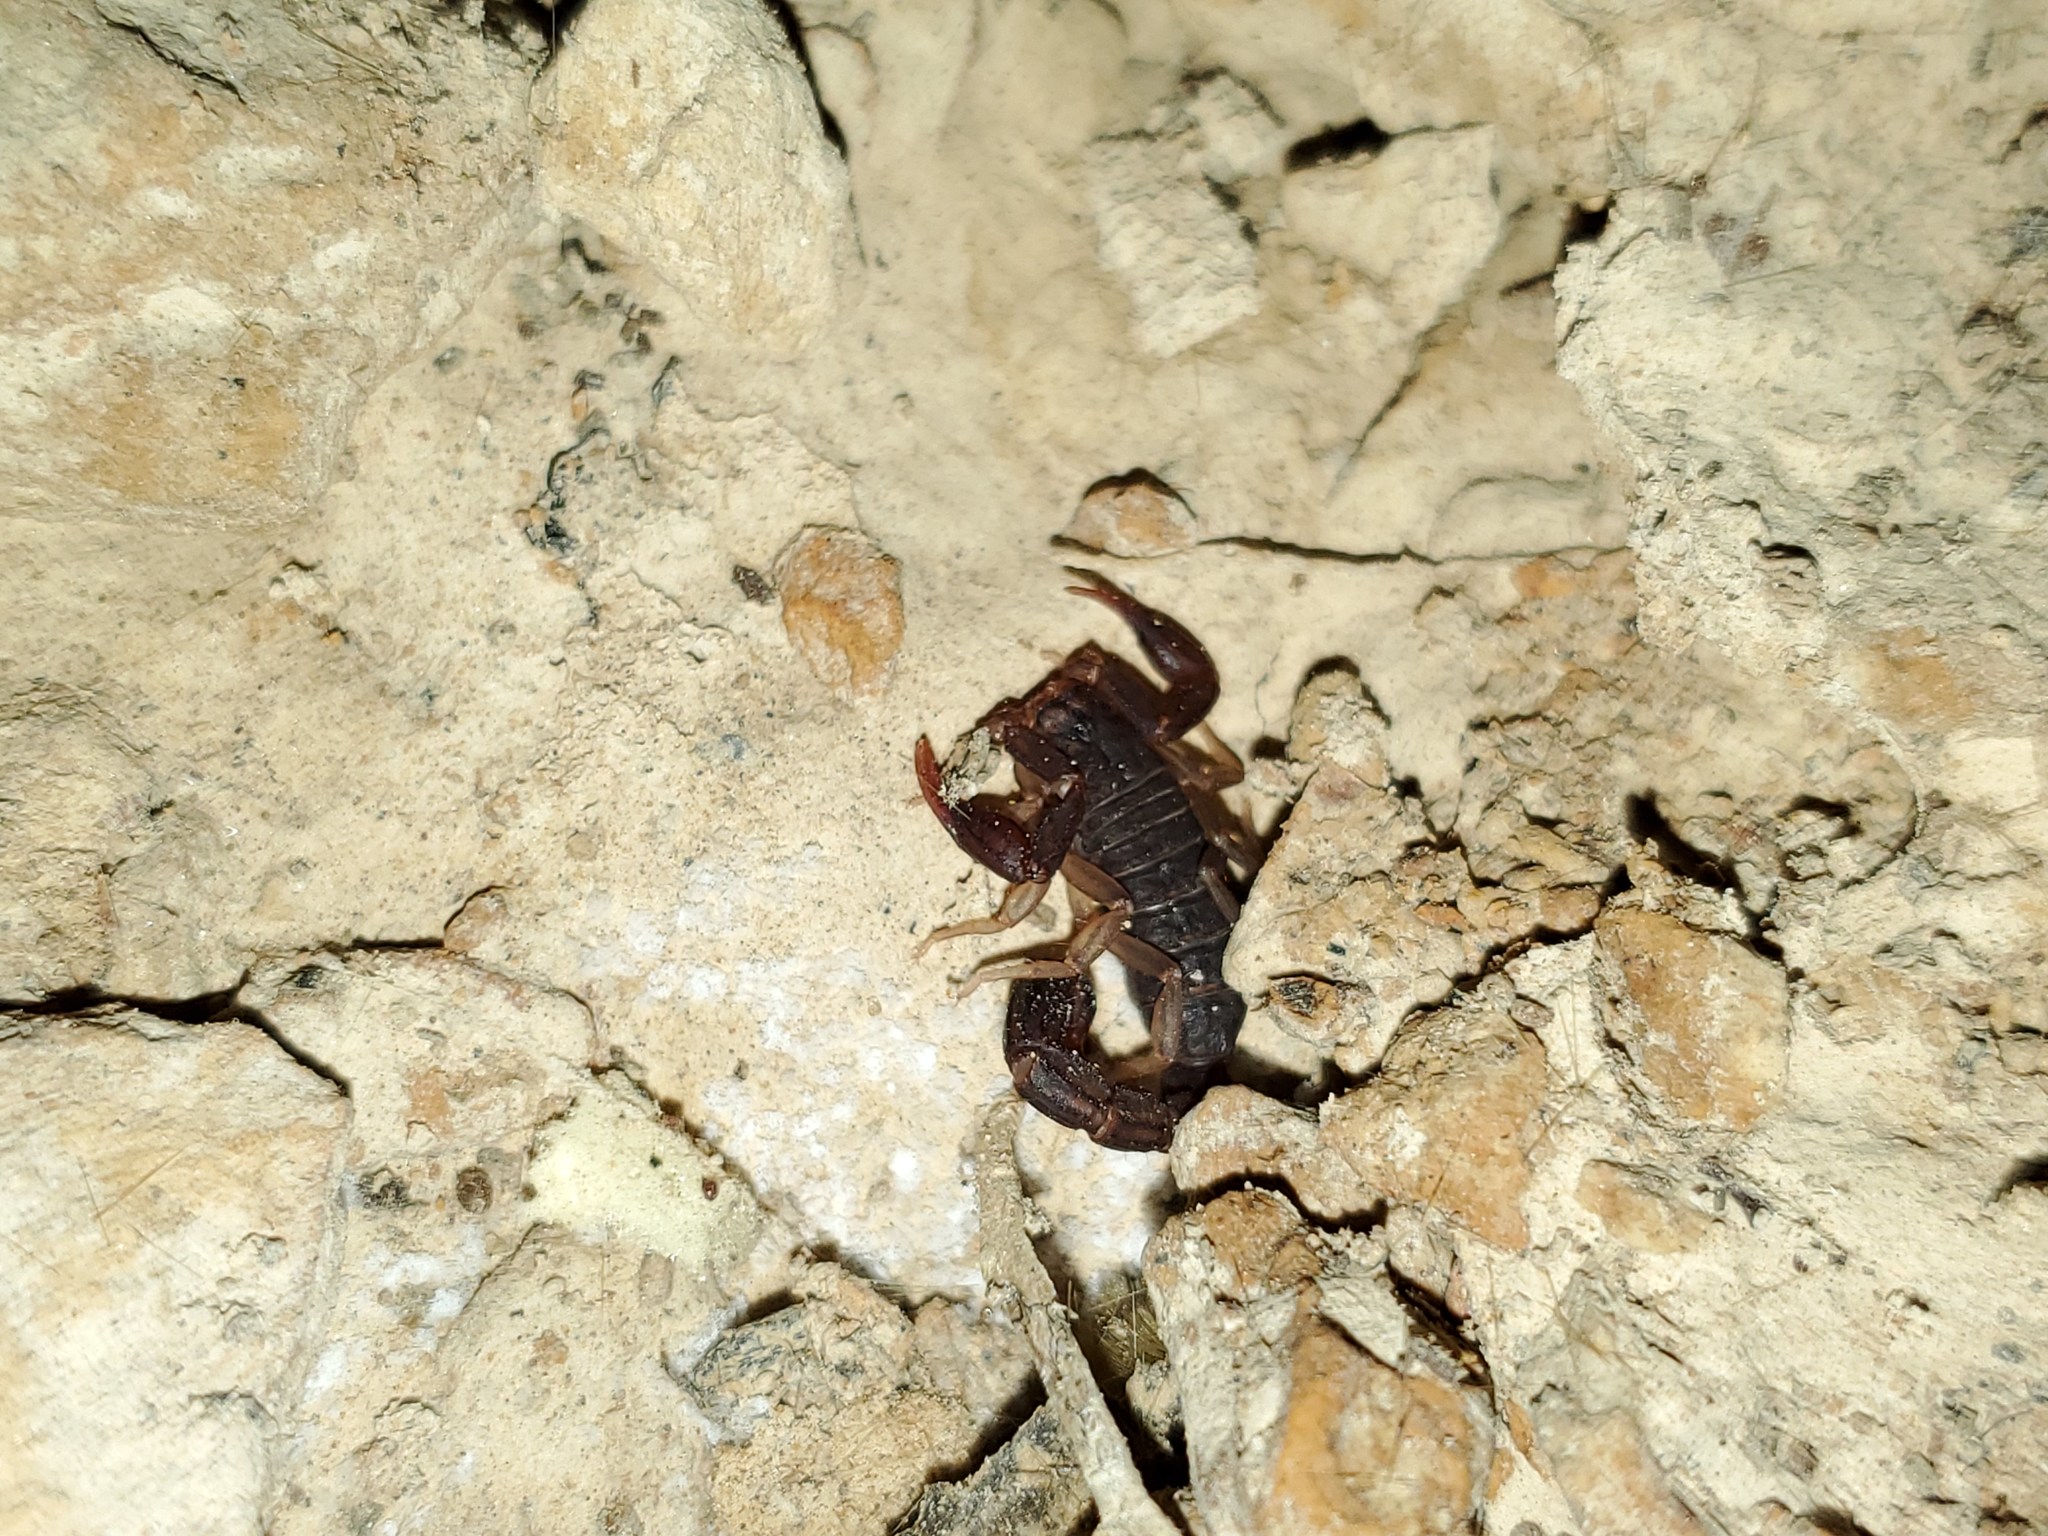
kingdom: Animalia
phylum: Arthropoda
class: Arachnida
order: Scorpiones
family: Vaejovidae
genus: Vaejovis
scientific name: Vaejovis carolinianus
